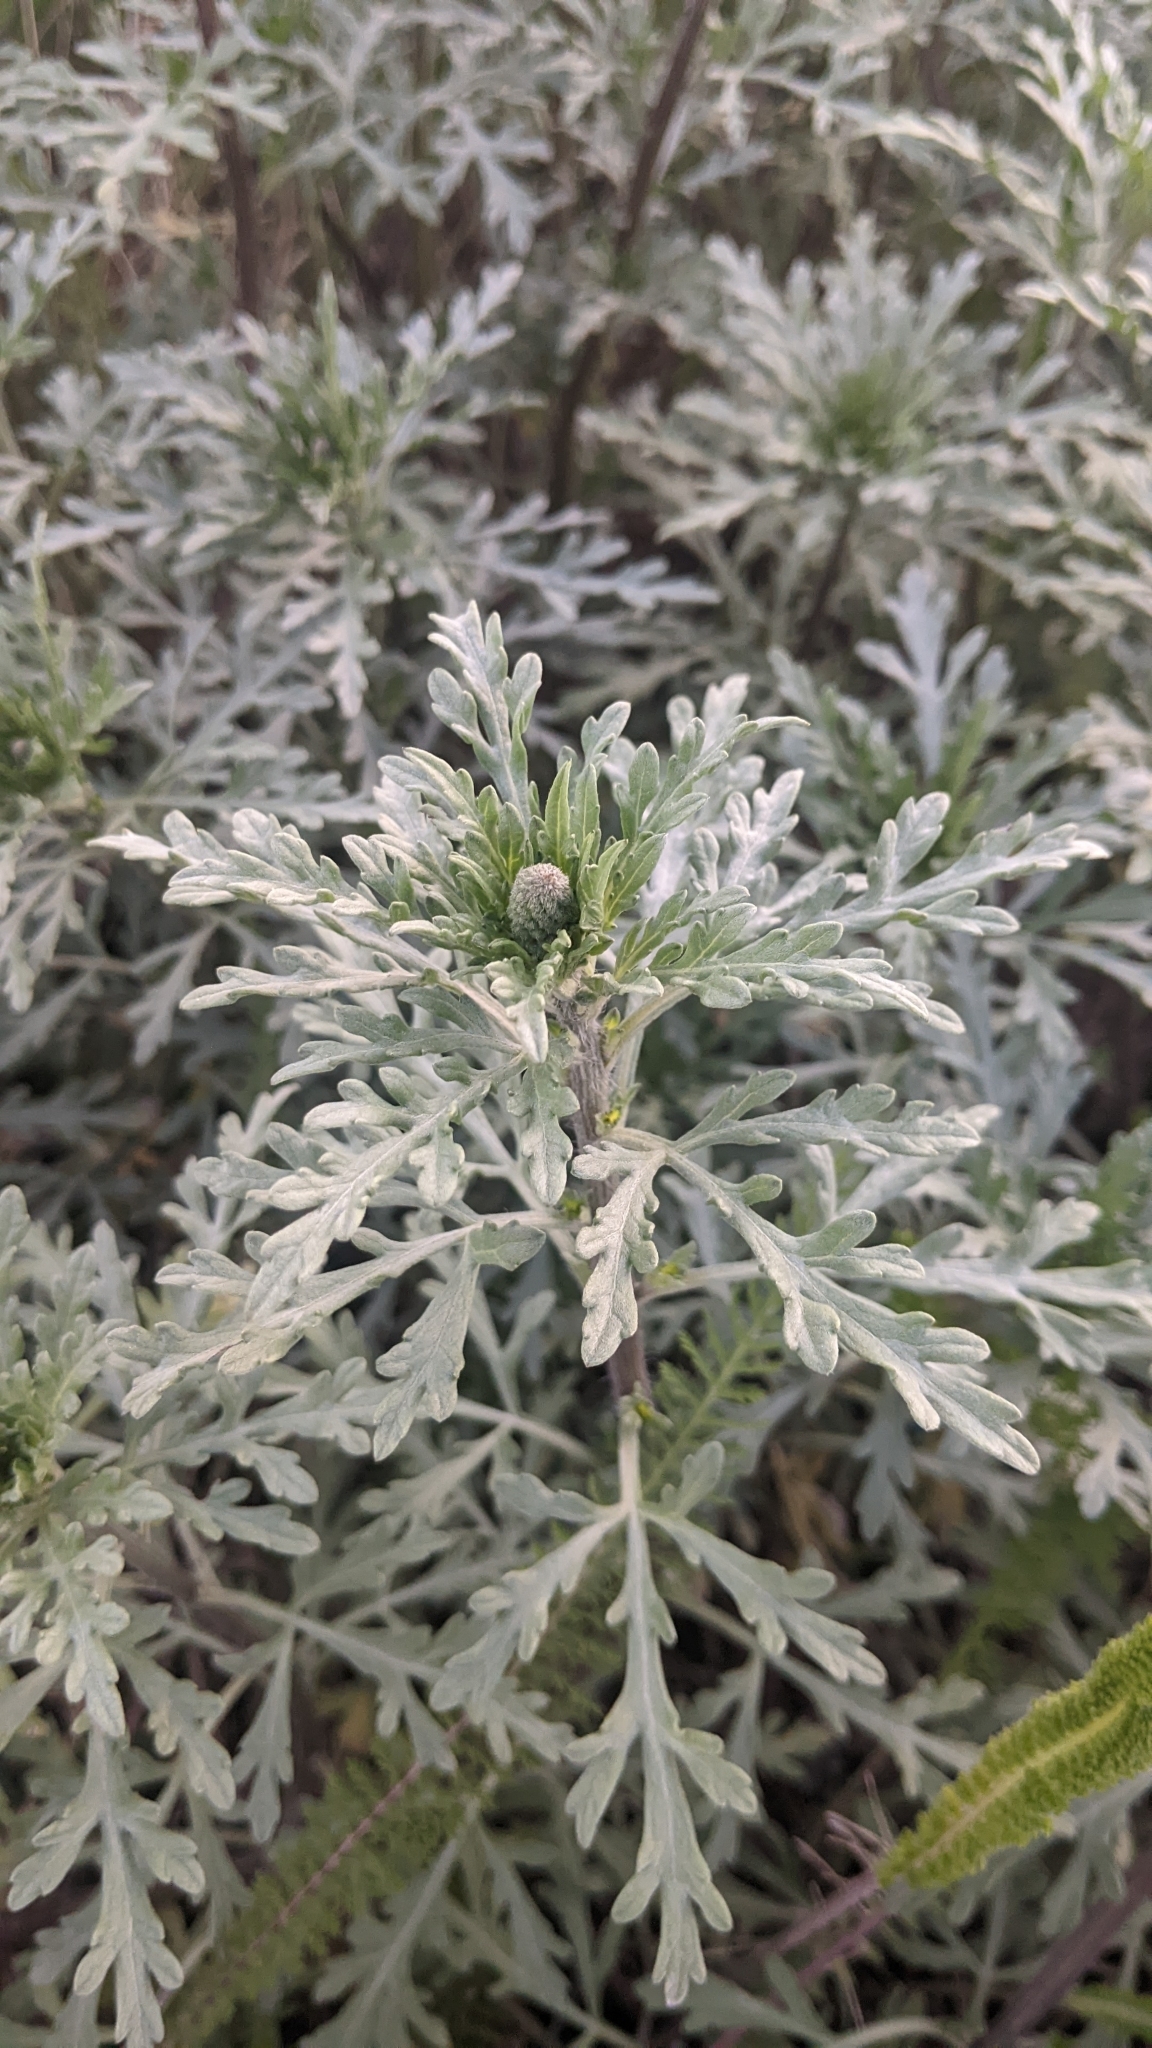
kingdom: Plantae
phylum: Tracheophyta
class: Magnoliopsida
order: Asterales
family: Asteraceae
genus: Ambrosia
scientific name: Ambrosia chamissonis
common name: Beachbur
